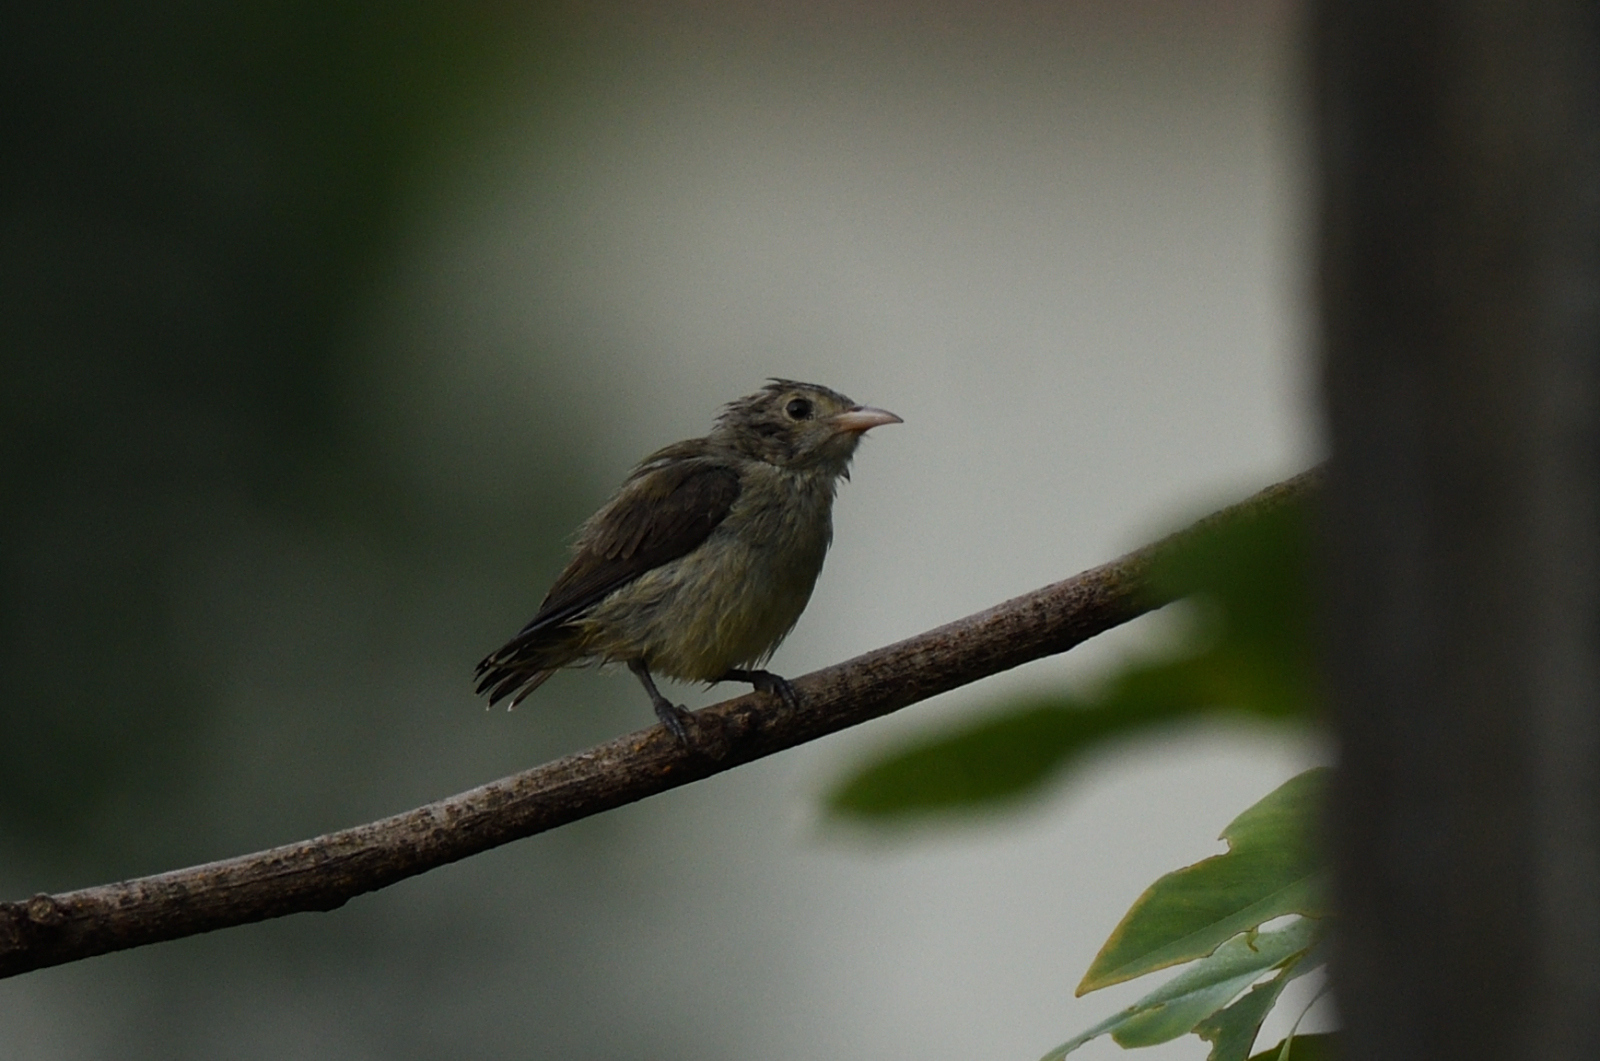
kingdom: Animalia
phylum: Chordata
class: Aves
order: Passeriformes
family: Dicaeidae
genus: Dicaeum
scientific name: Dicaeum erythrorhynchos
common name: Pale-billed flowerpecker
